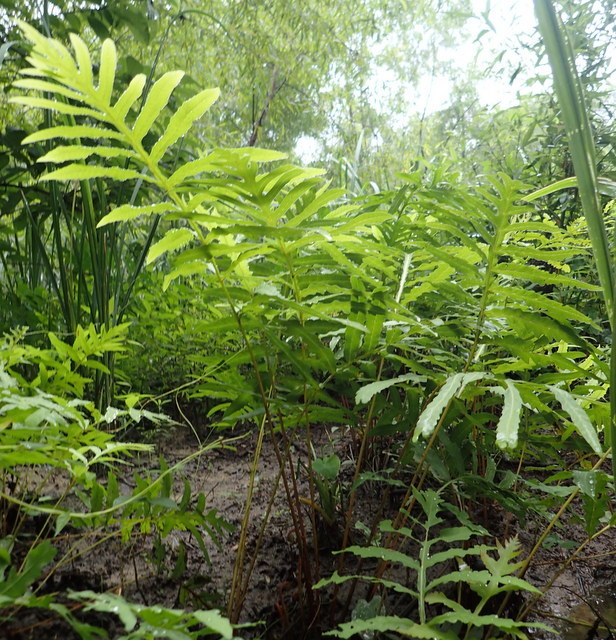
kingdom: Plantae
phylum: Tracheophyta
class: Polypodiopsida
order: Polypodiales
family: Onocleaceae
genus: Onoclea
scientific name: Onoclea sensibilis
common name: Sensitive fern
